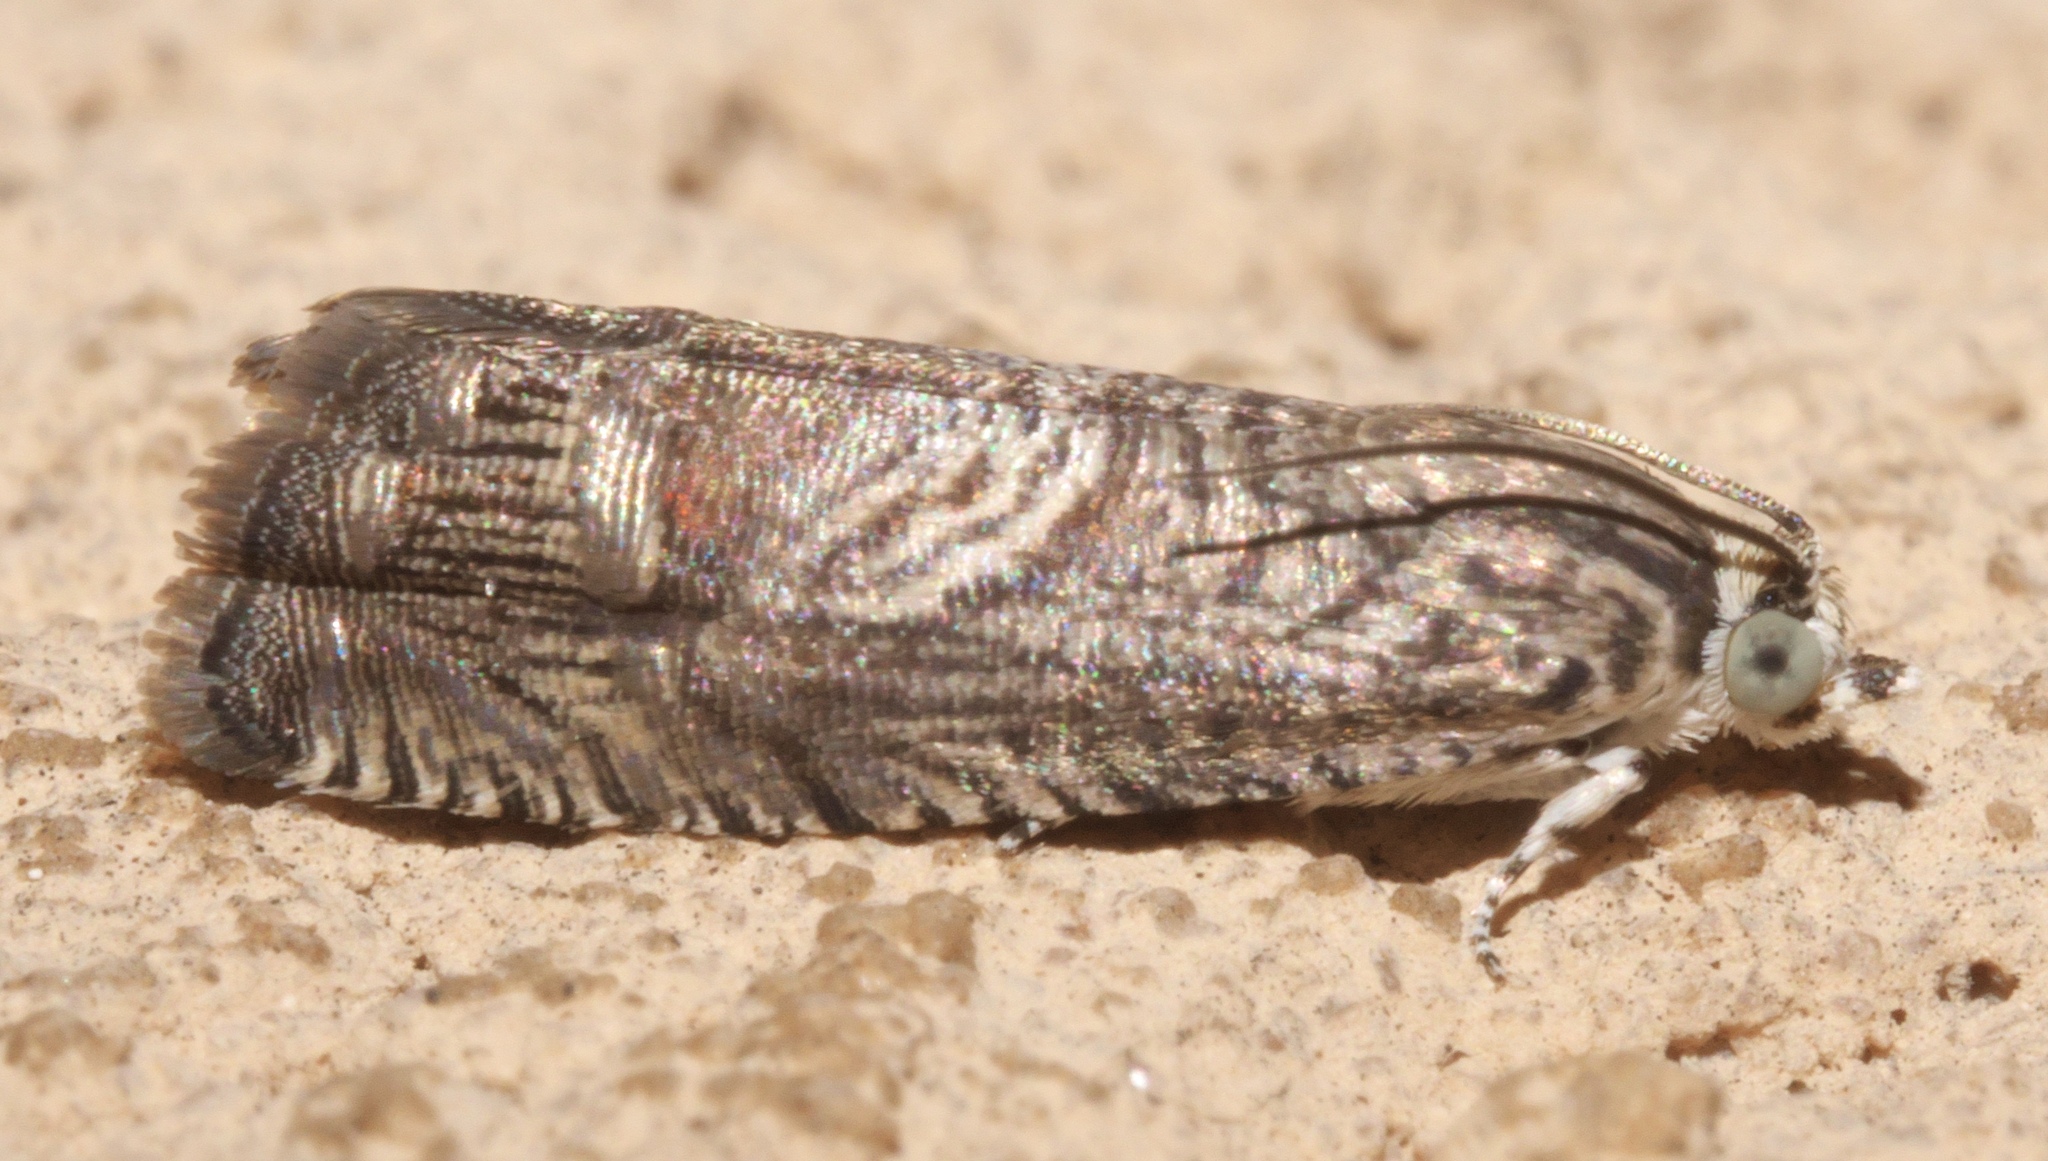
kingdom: Animalia
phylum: Arthropoda
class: Insecta
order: Lepidoptera
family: Tortricidae
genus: Ofatulena
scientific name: Ofatulena duodecemstriata
